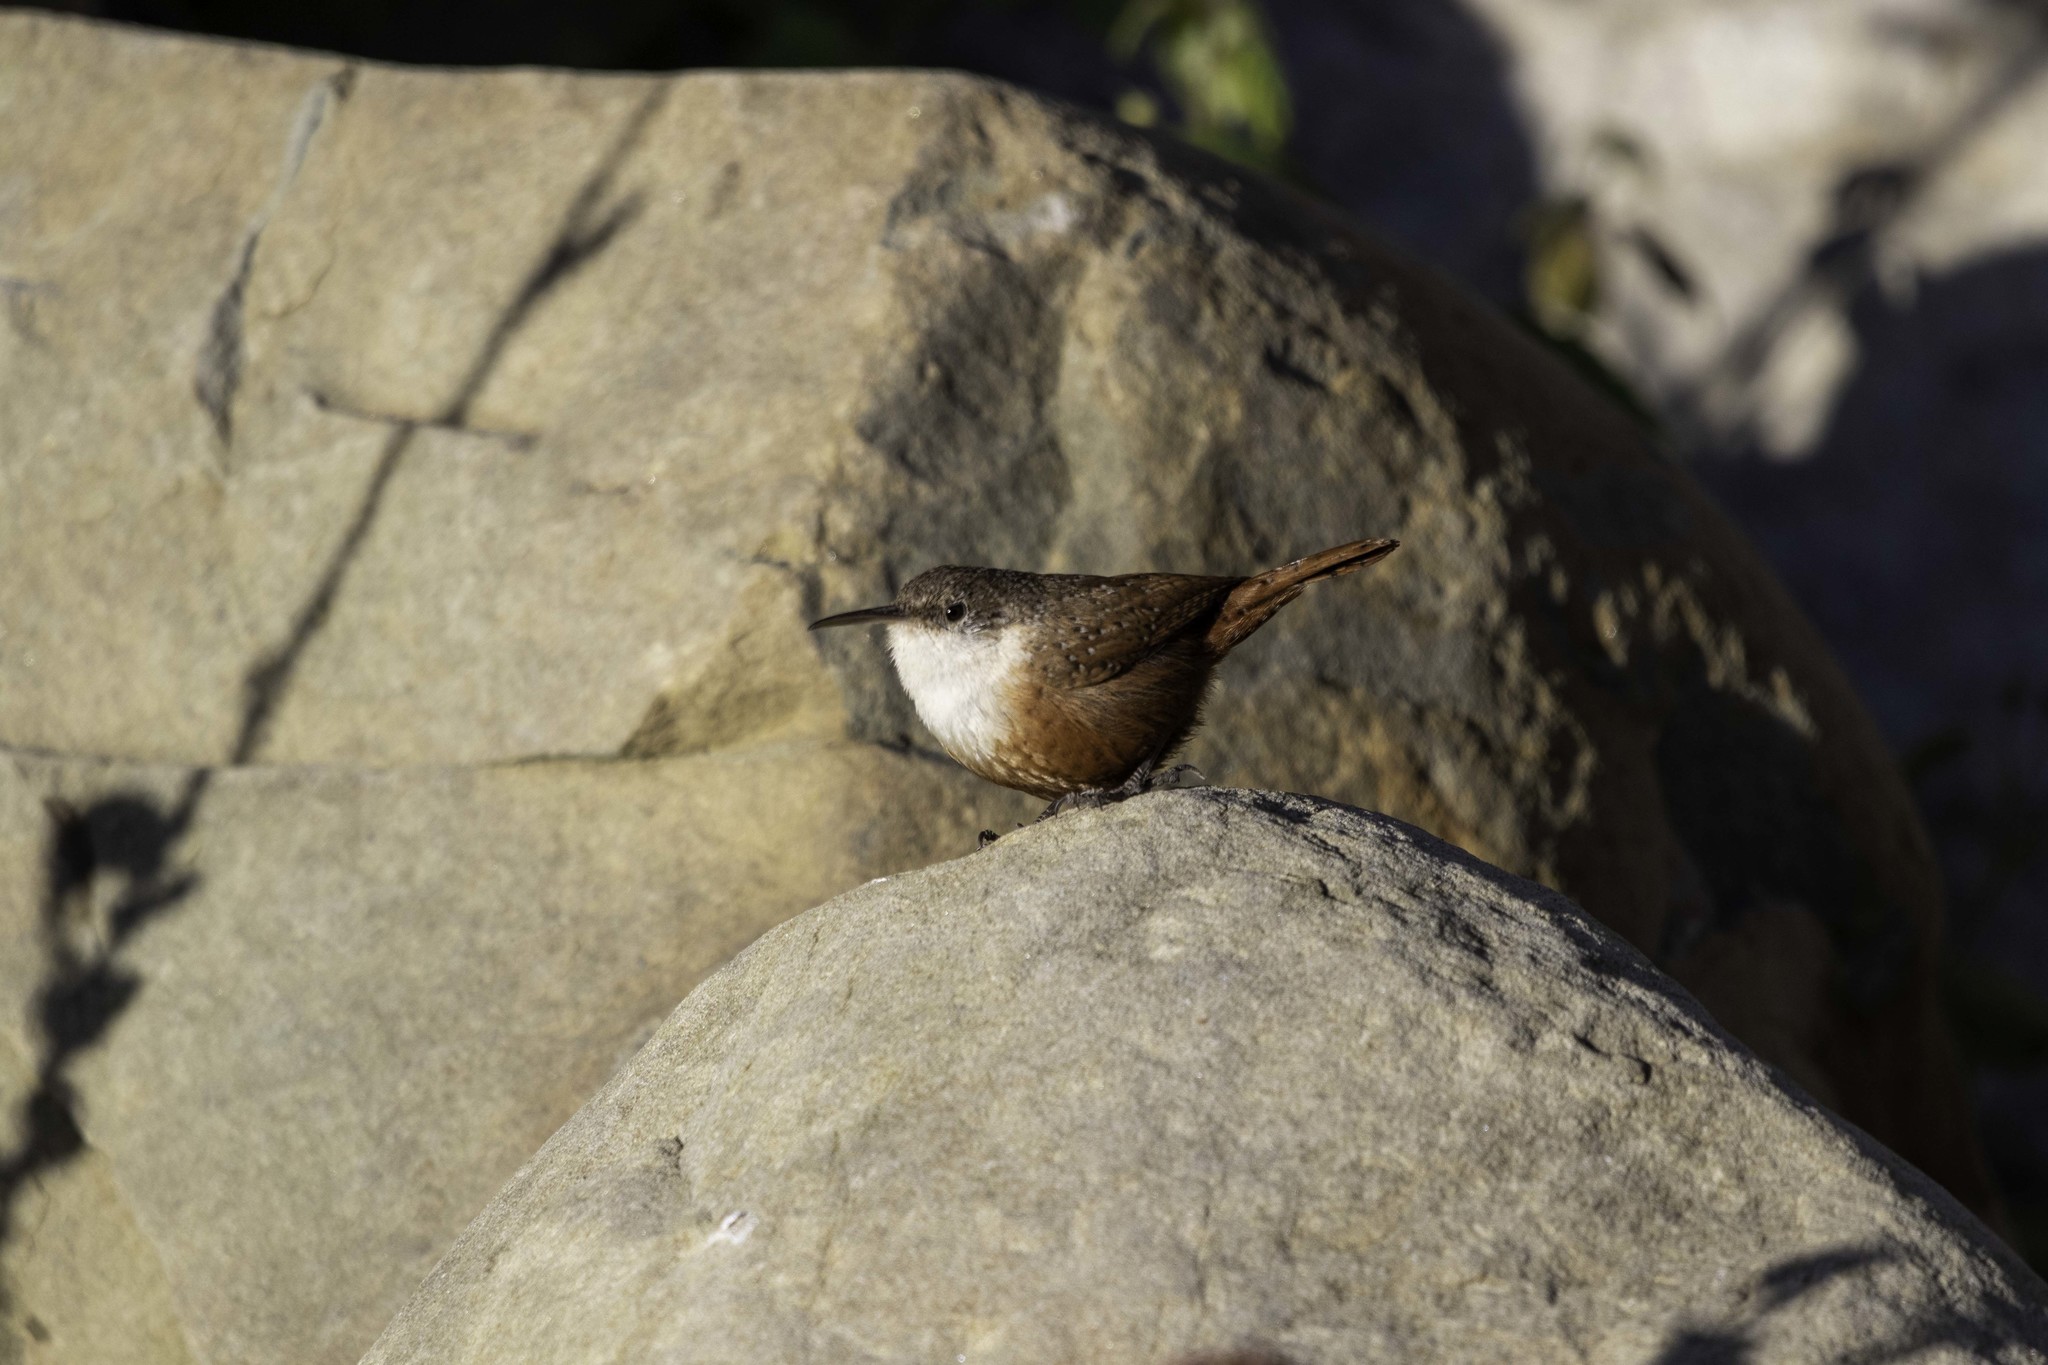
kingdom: Animalia
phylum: Chordata
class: Aves
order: Passeriformes
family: Troglodytidae
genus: Catherpes
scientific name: Catherpes mexicanus
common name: Canyon wren
